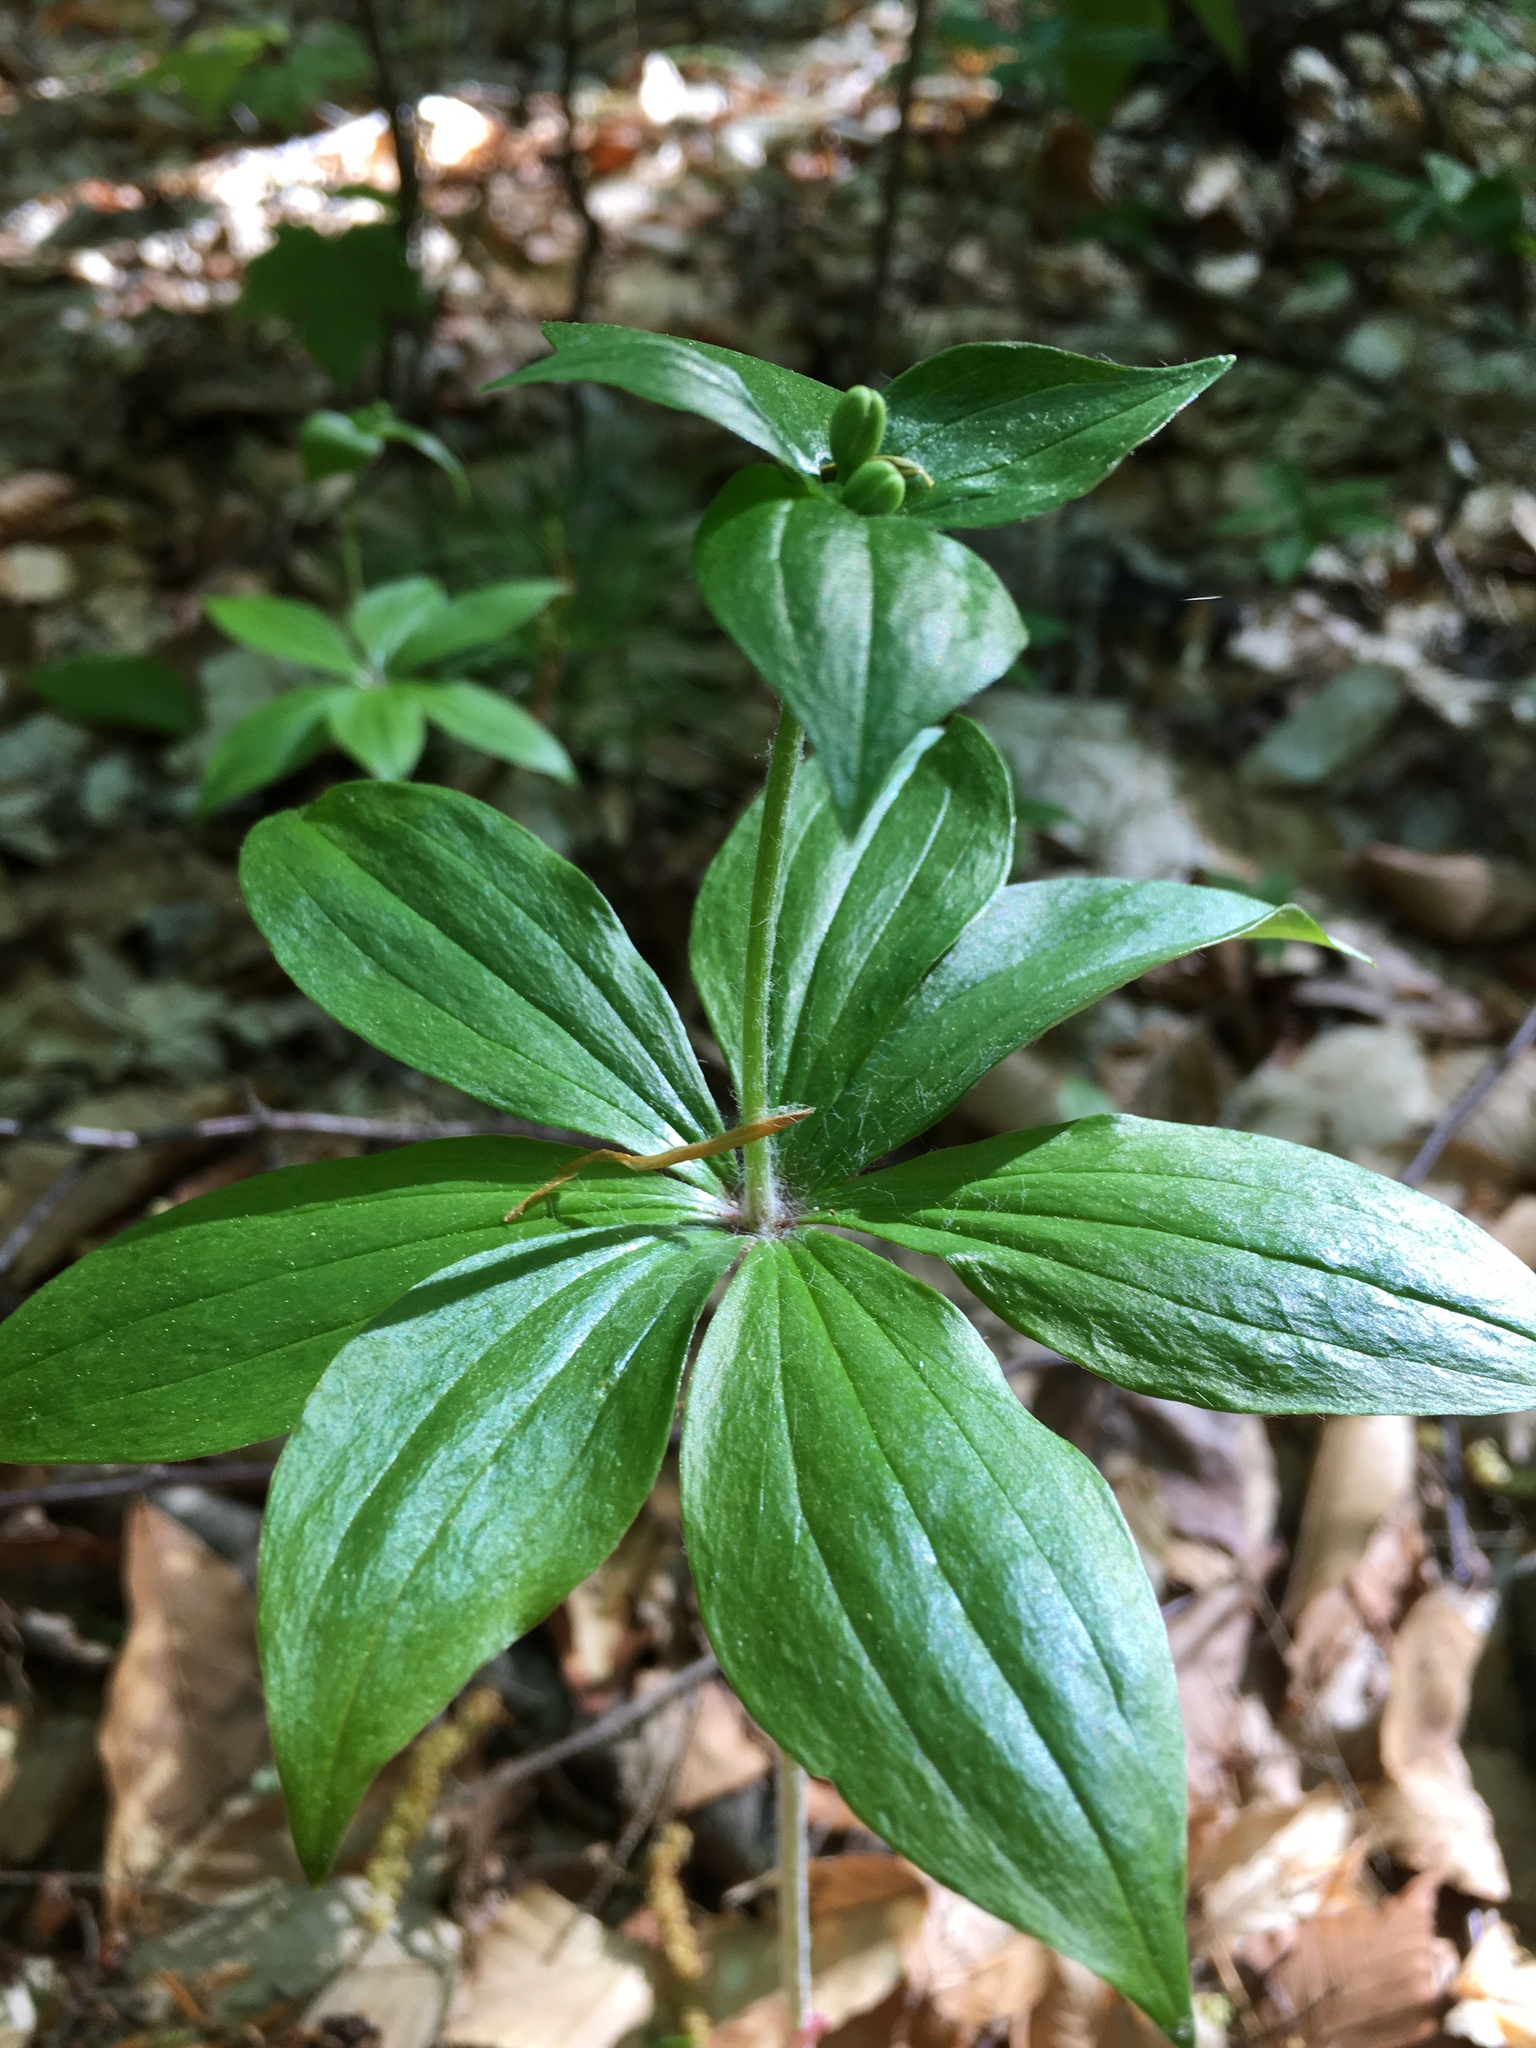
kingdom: Plantae
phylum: Tracheophyta
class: Liliopsida
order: Liliales
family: Liliaceae
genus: Medeola
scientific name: Medeola virginiana
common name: Indian cucumber-root
